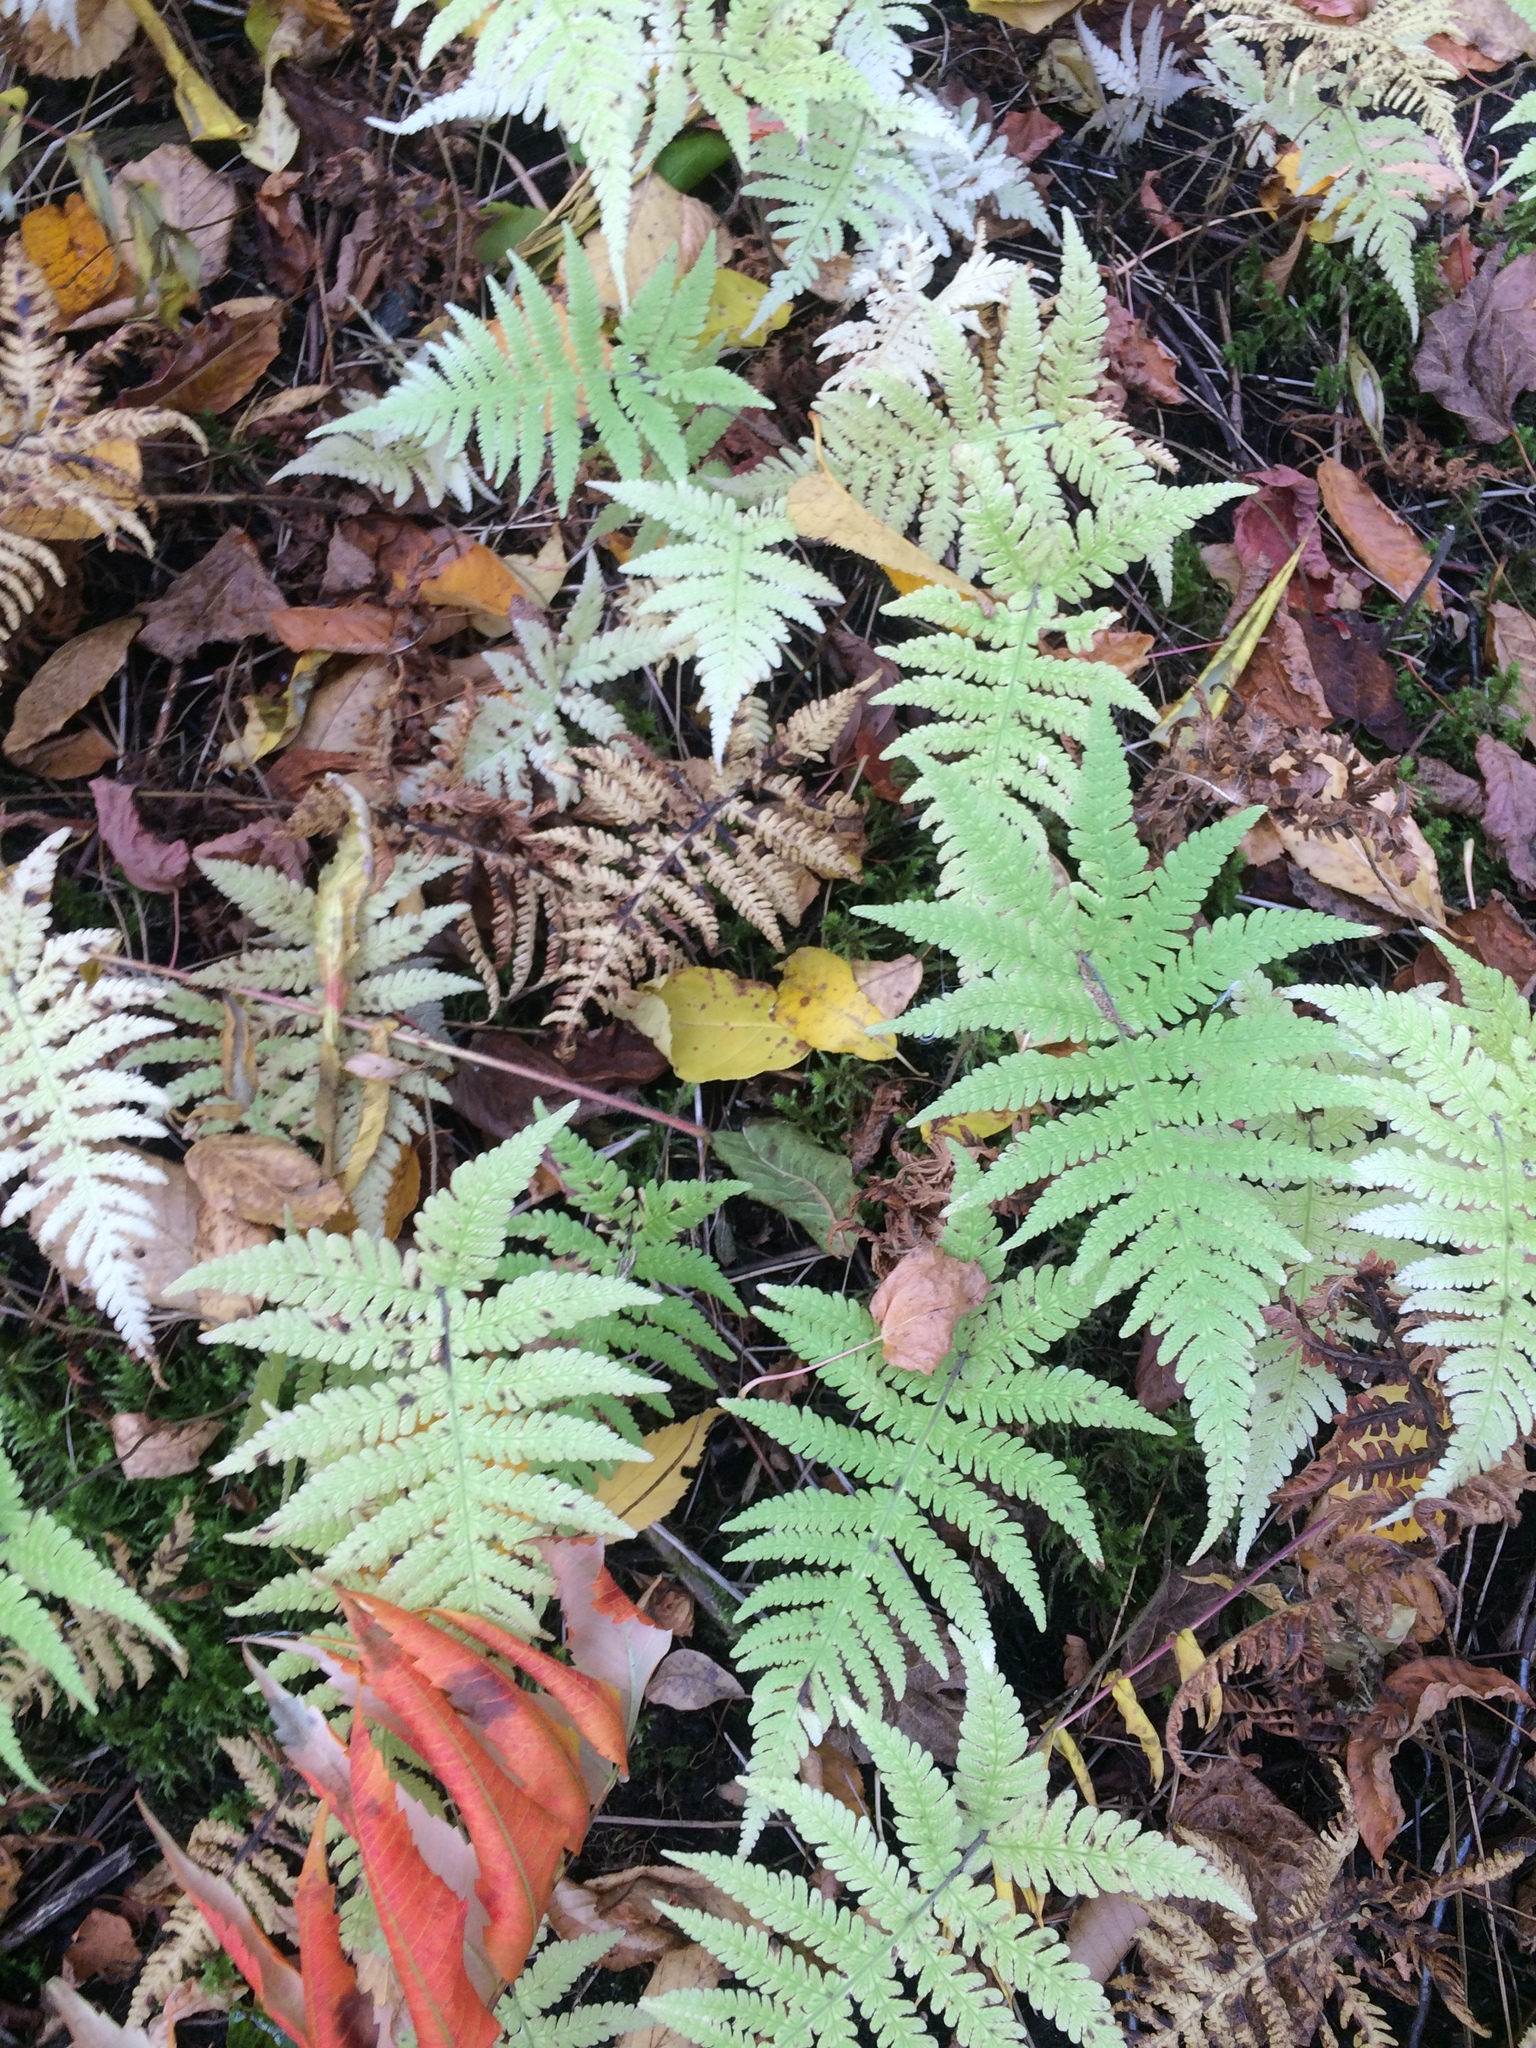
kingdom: Plantae
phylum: Tracheophyta
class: Polypodiopsida
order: Polypodiales
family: Thelypteridaceae
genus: Phegopteris
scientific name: Phegopteris connectilis
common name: Beech fern
